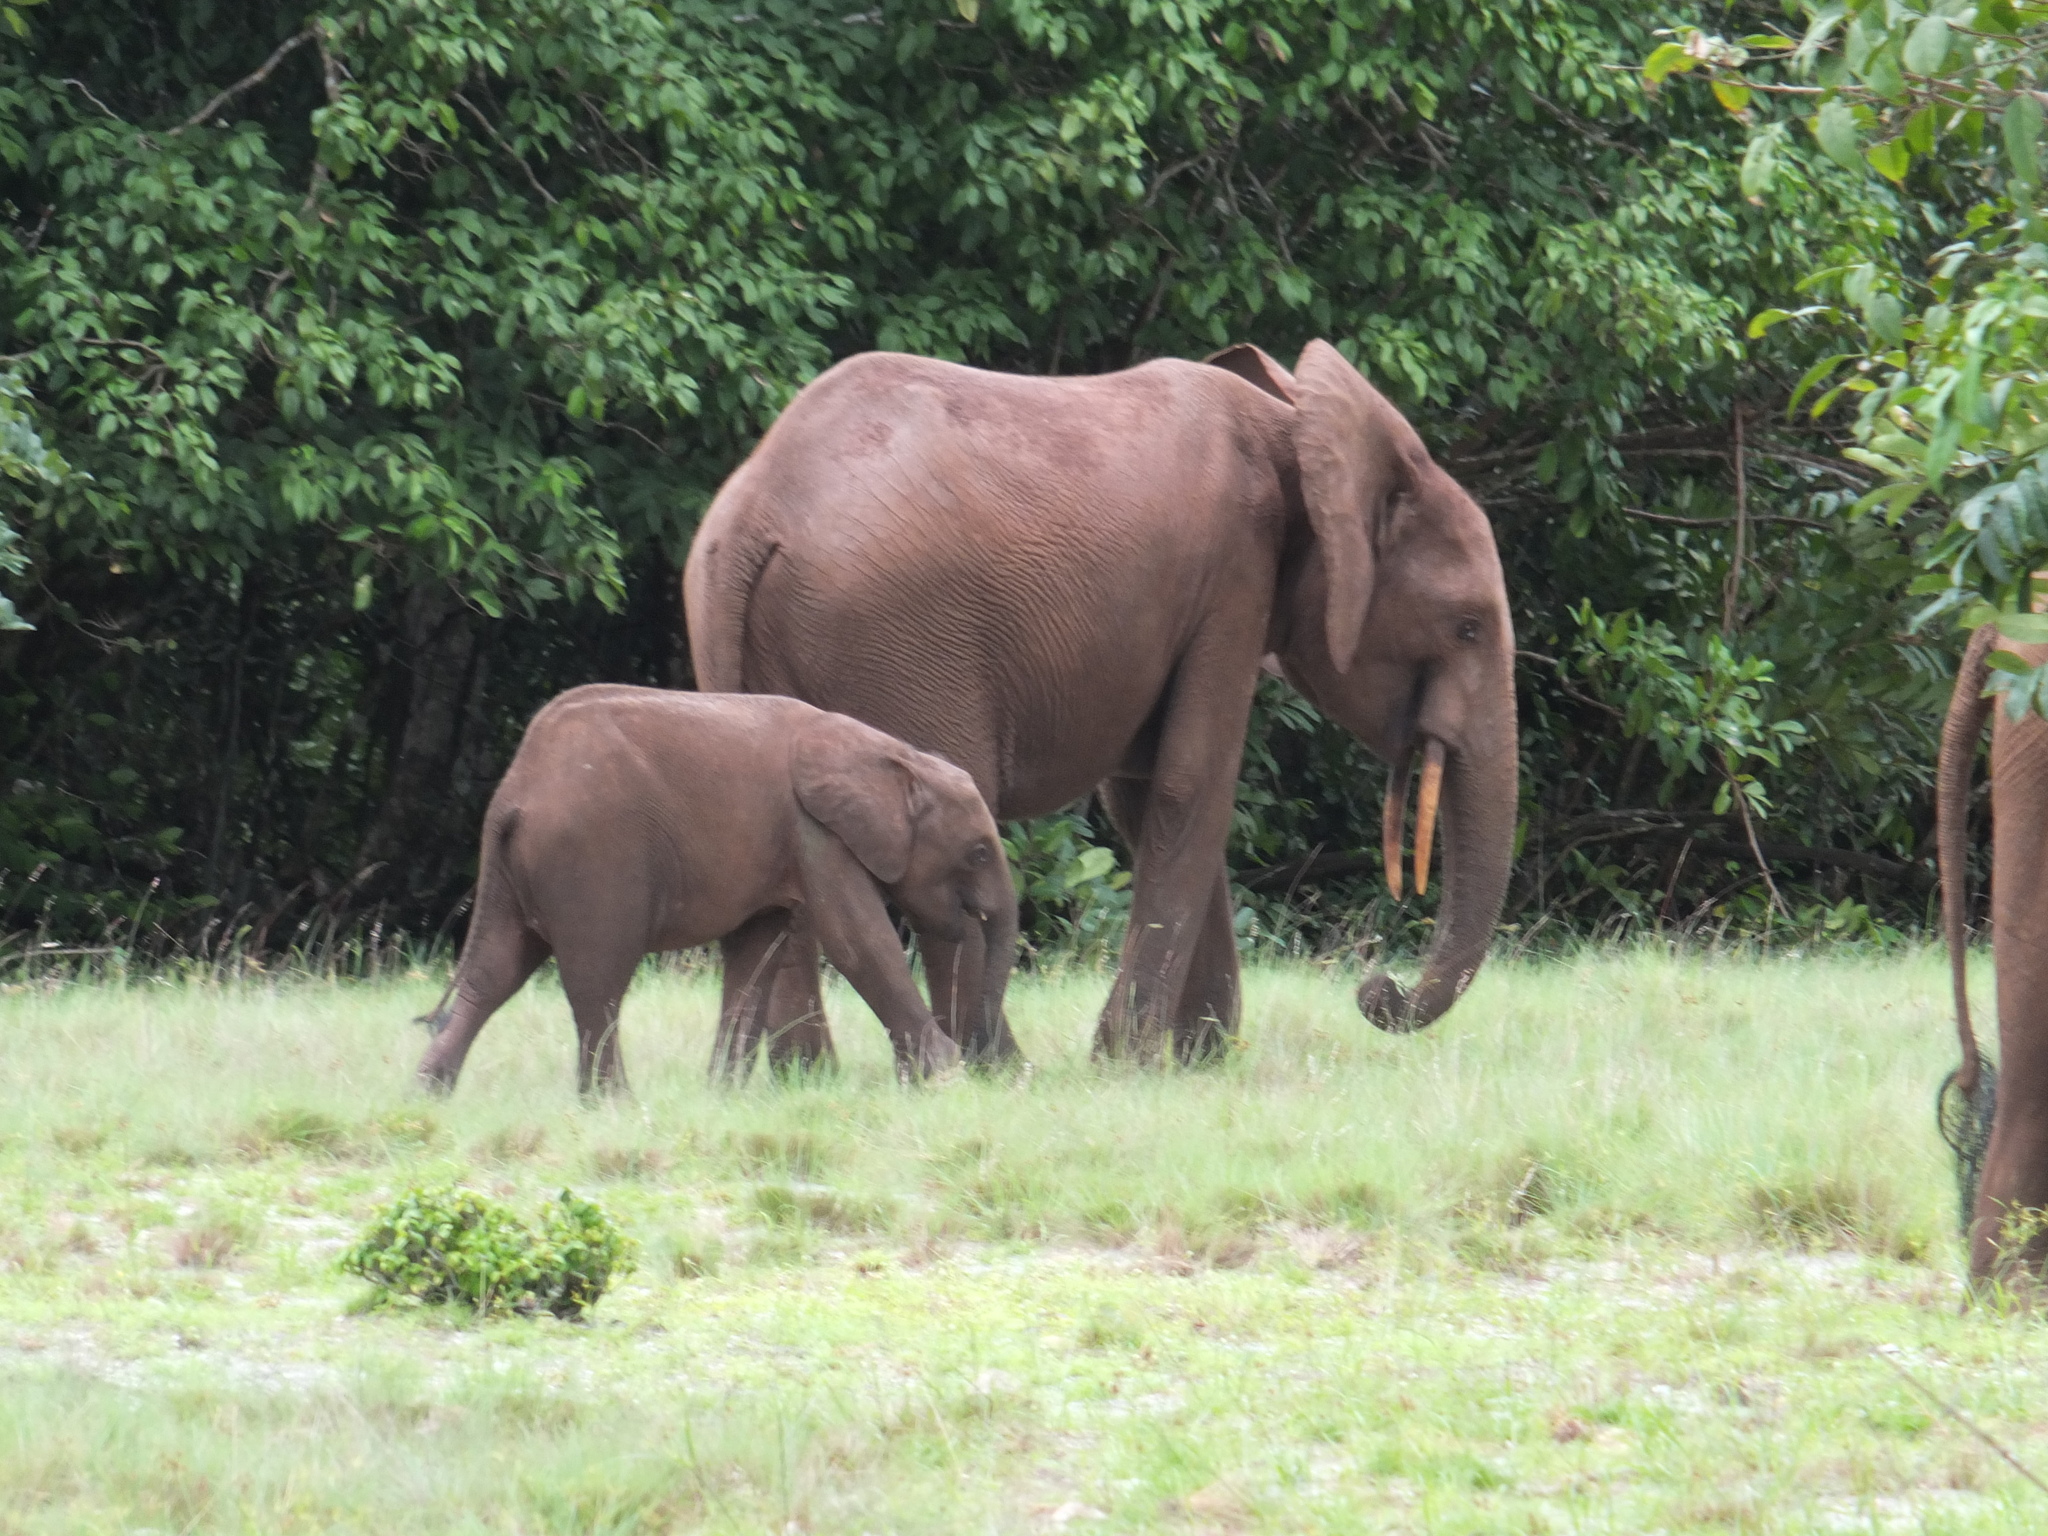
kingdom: Animalia
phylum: Chordata
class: Mammalia
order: Proboscidea
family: Elephantidae
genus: Loxodonta
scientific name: Loxodonta cyclotis
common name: African forest elephant
